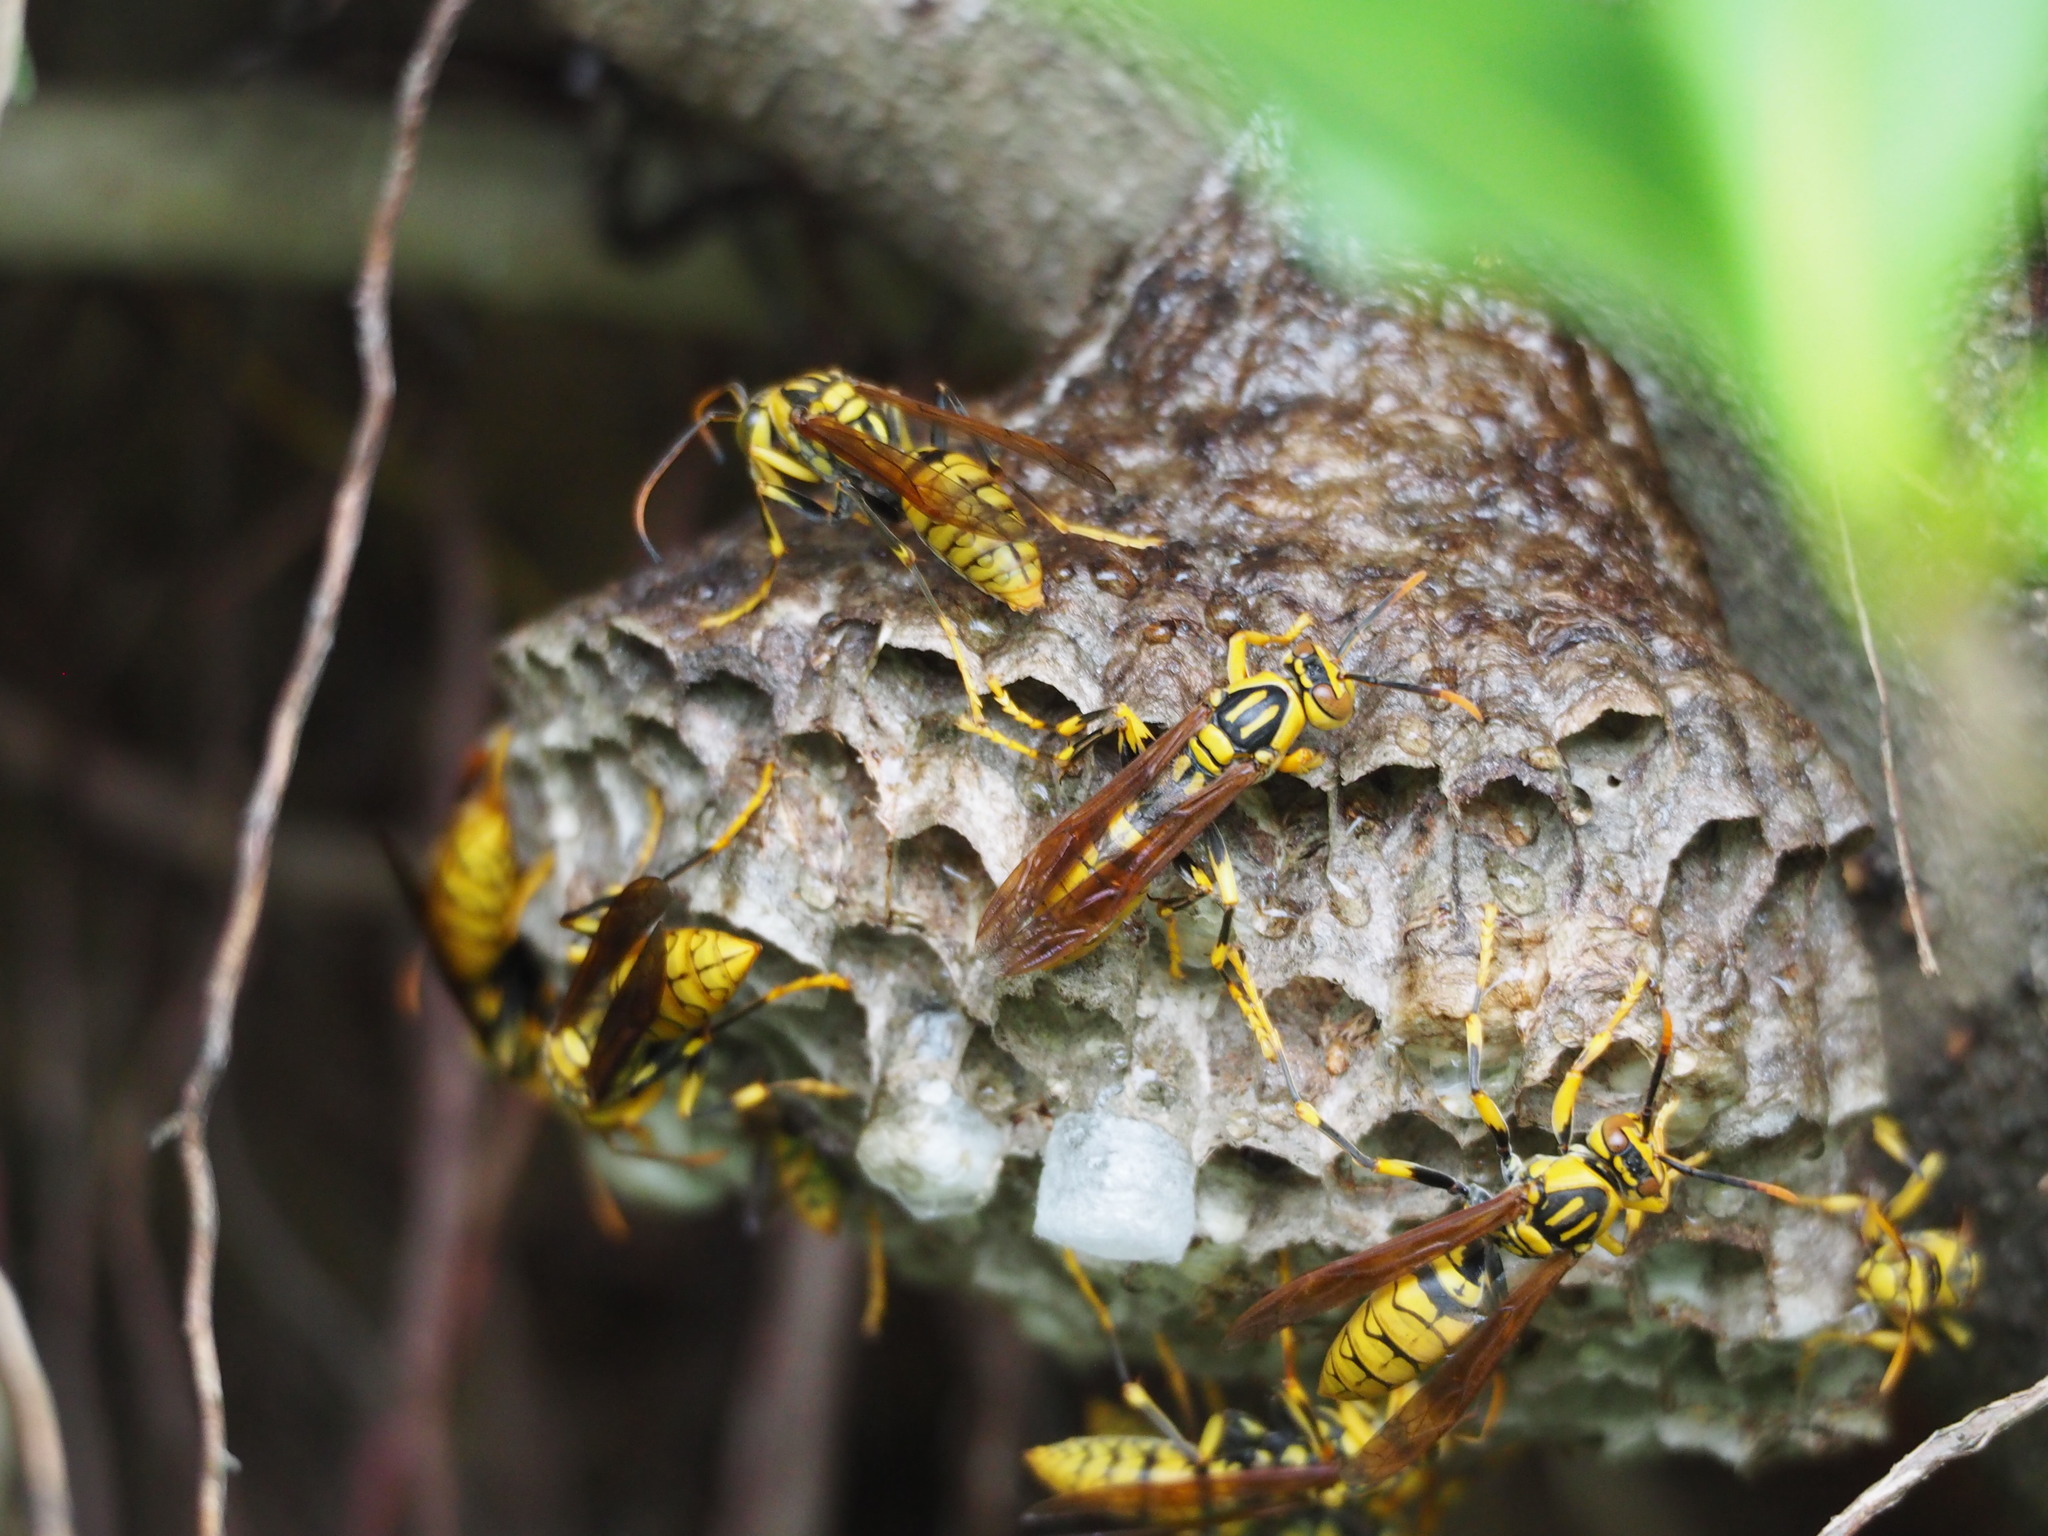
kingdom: Animalia
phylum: Arthropoda
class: Insecta
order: Hymenoptera
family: Eumenidae
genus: Polistes
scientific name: Polistes rothneyi
